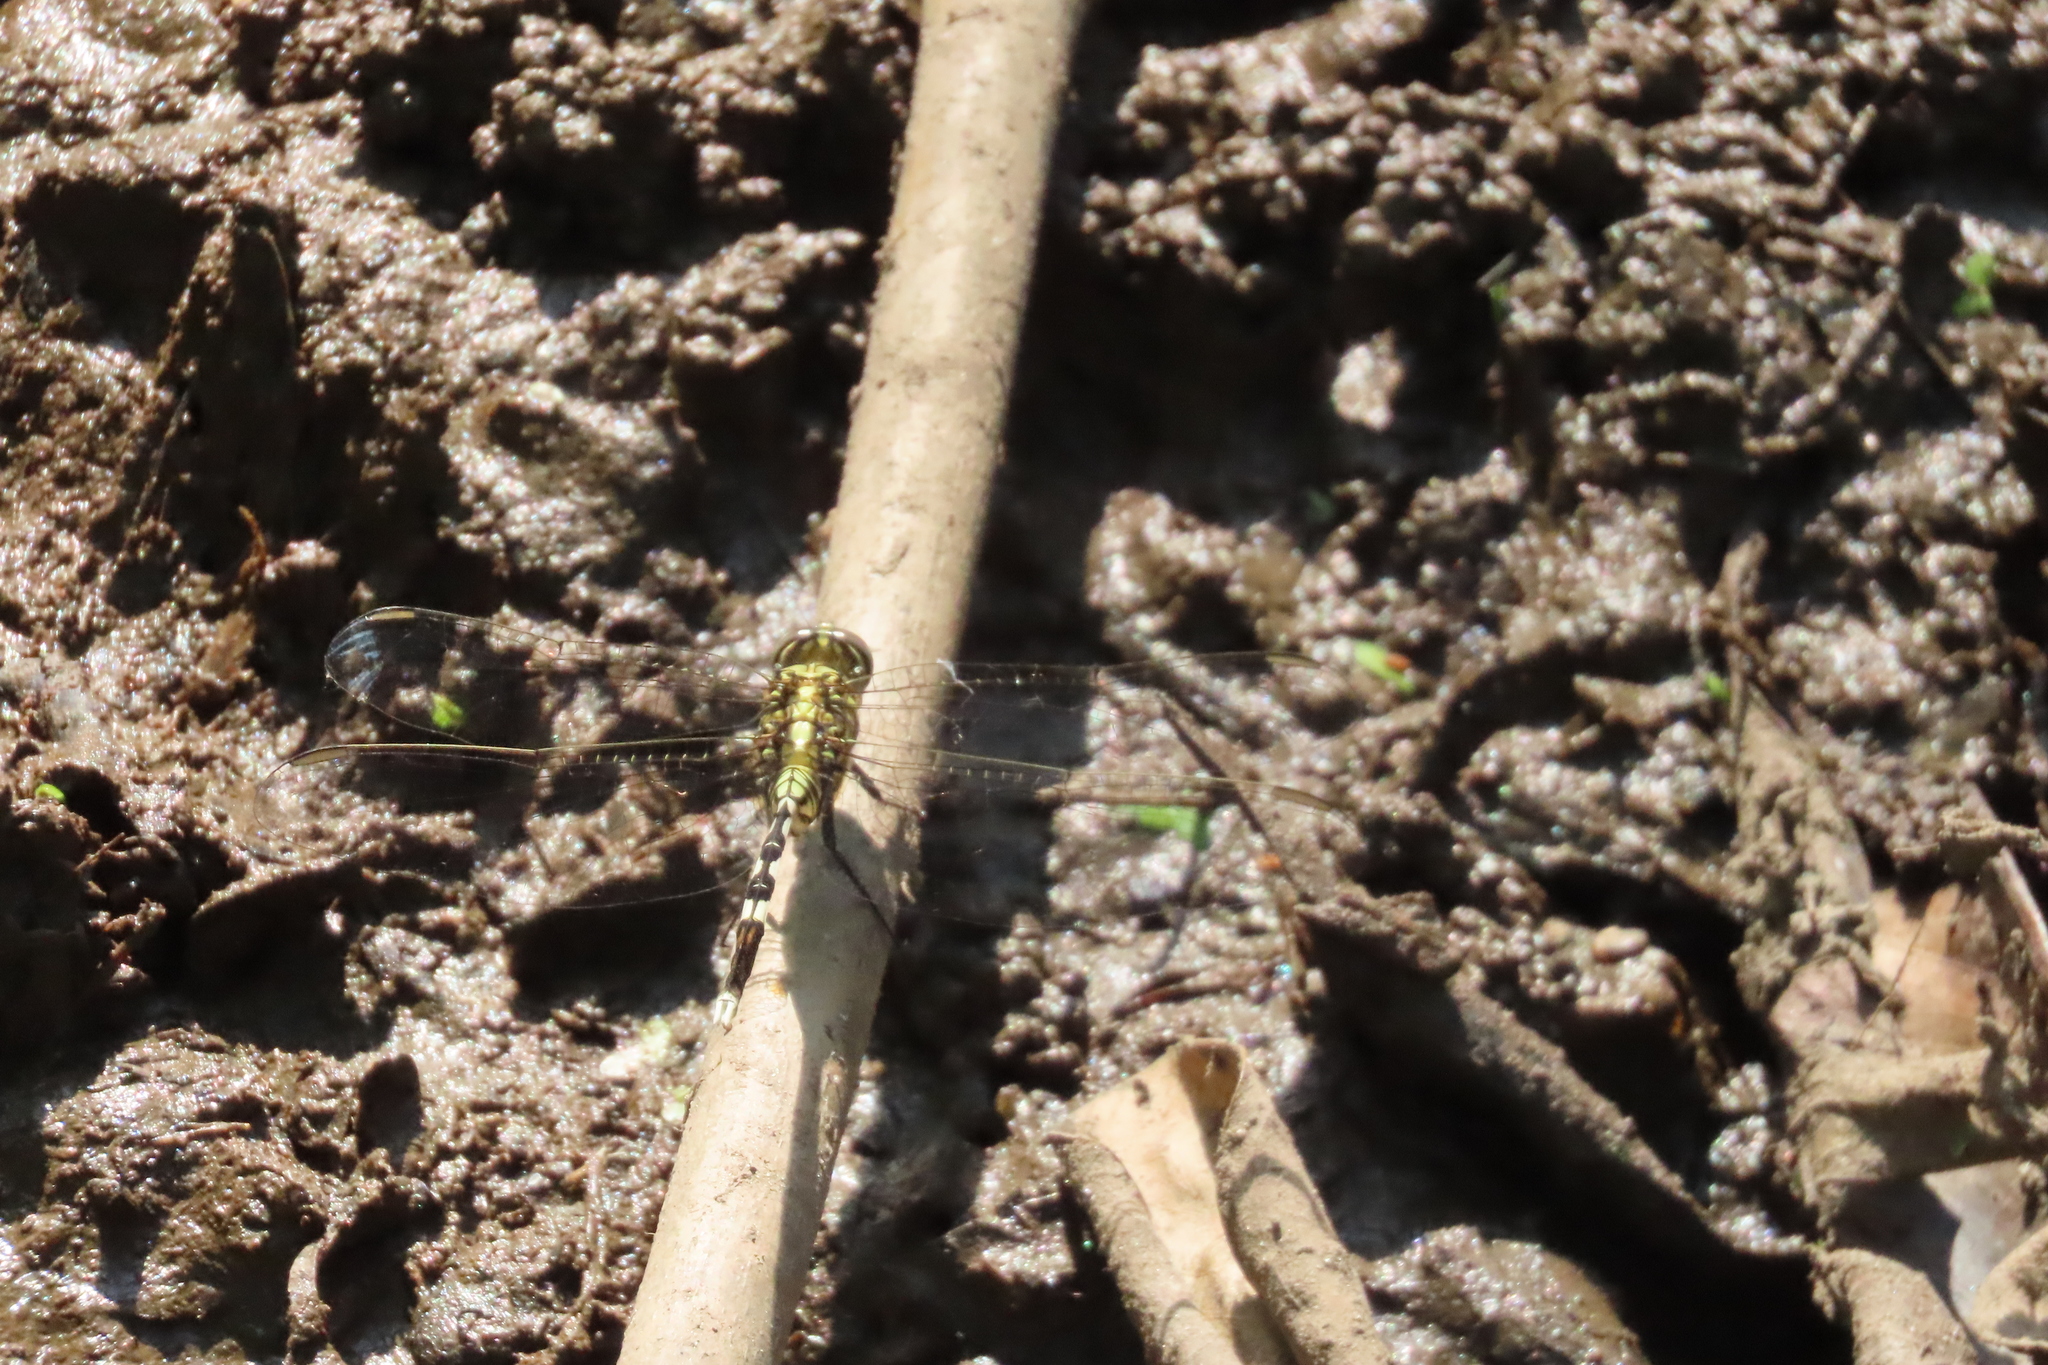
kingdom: Animalia
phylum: Arthropoda
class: Insecta
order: Odonata
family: Libellulidae
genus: Orthetrum
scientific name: Orthetrum sabina
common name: Slender skimmer
